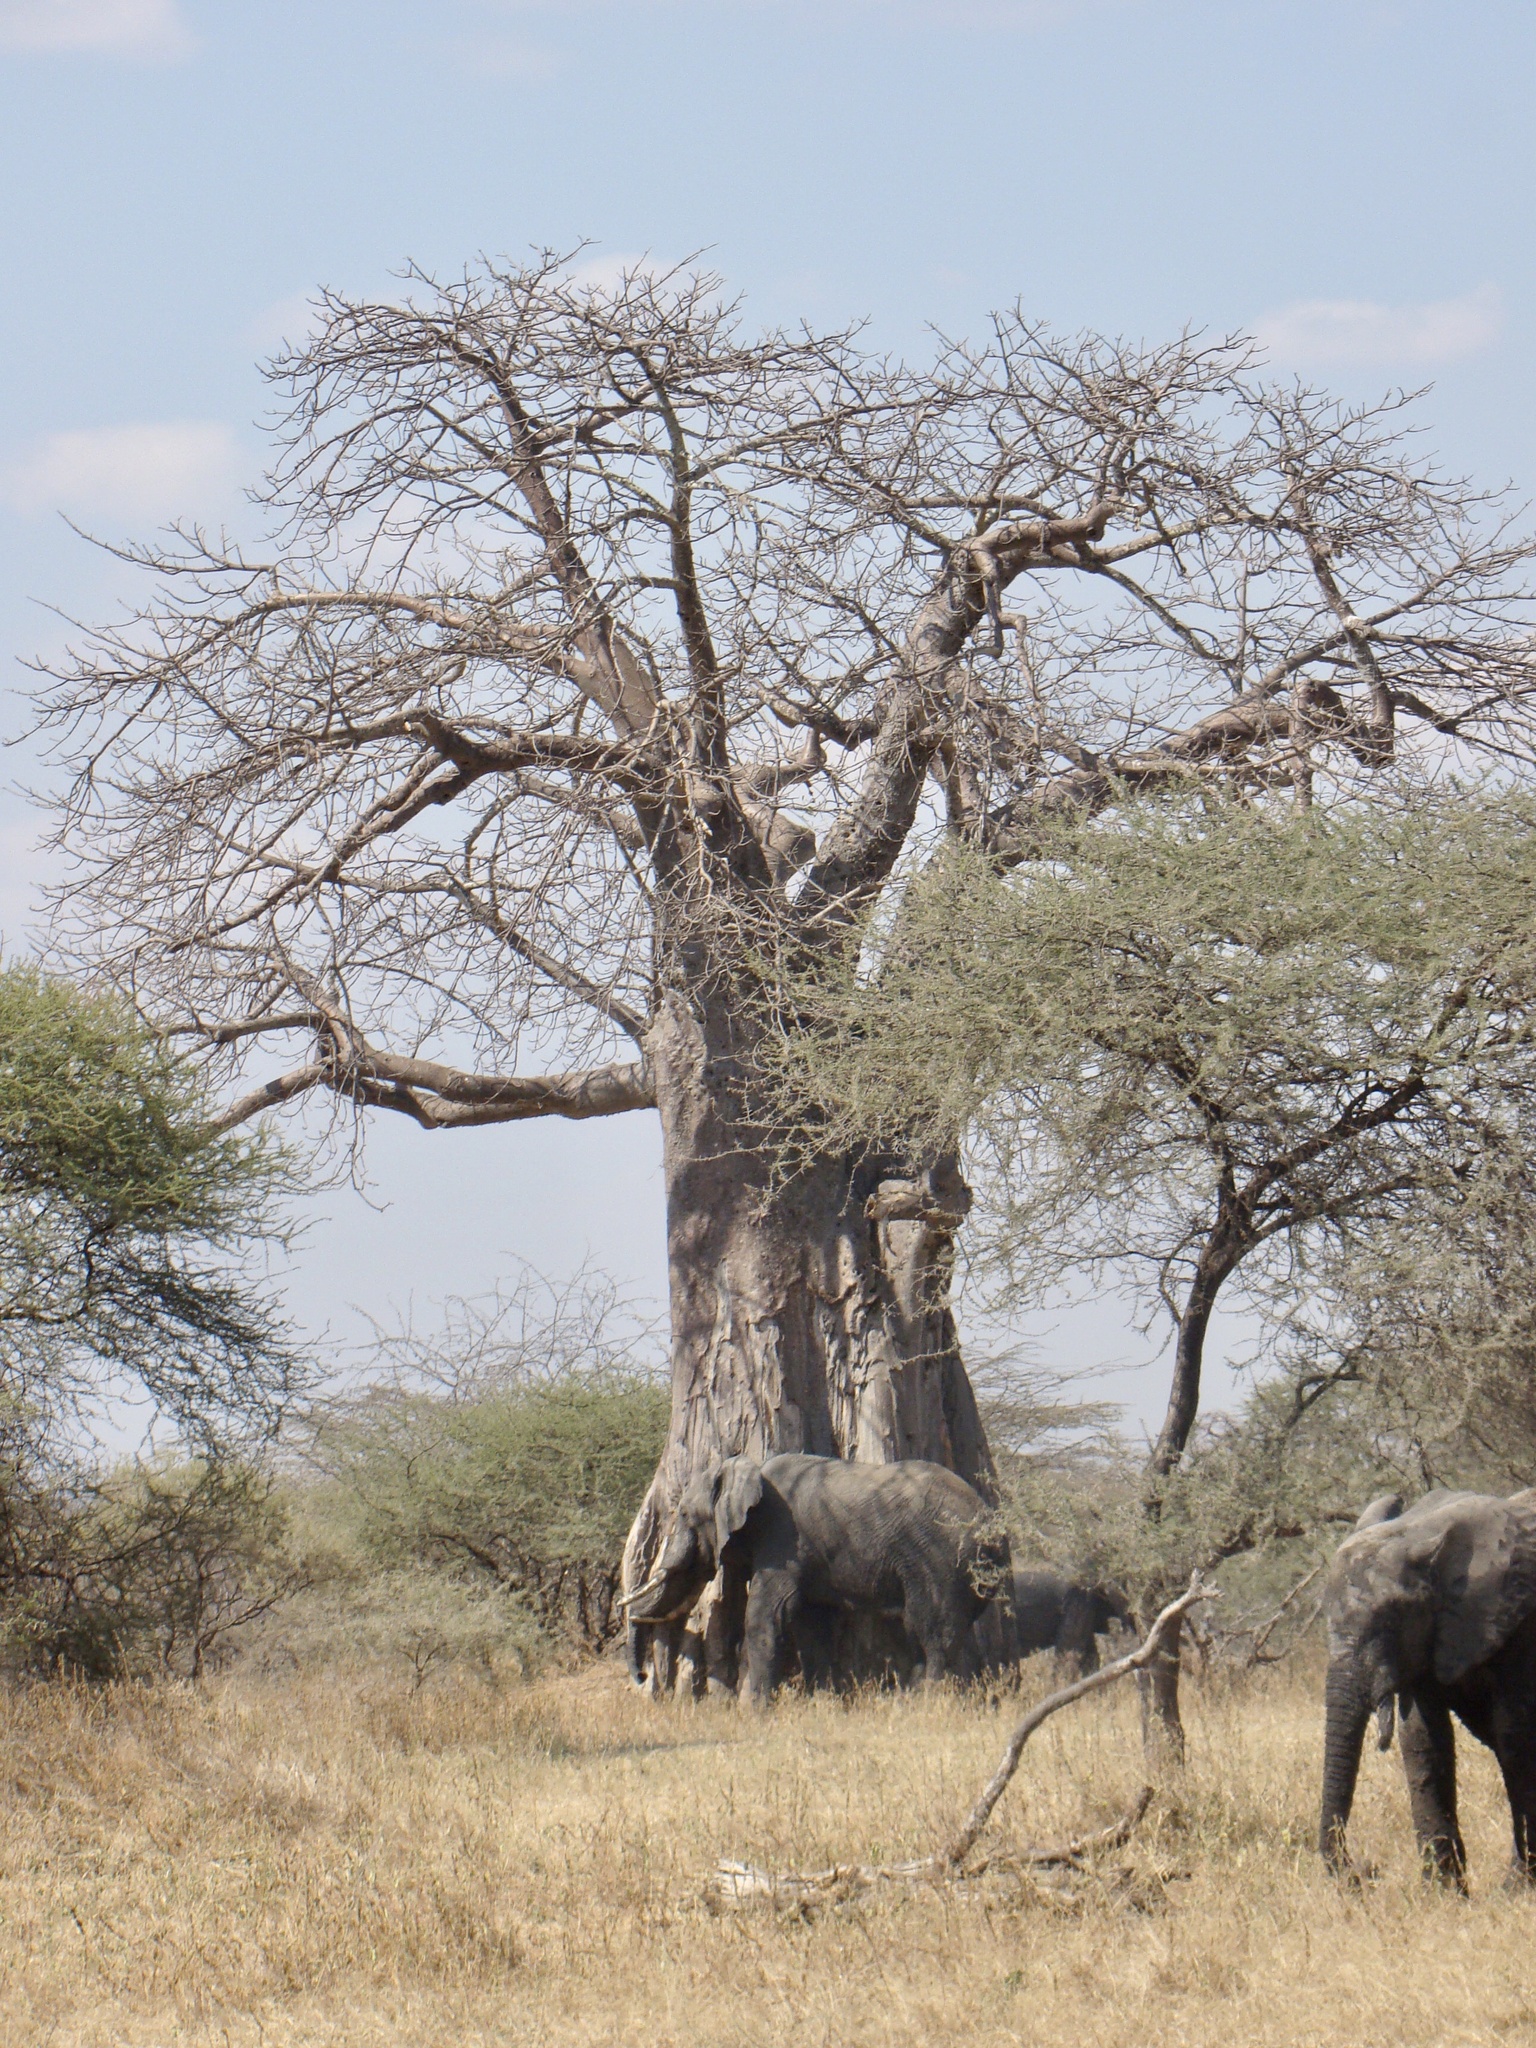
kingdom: Animalia
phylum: Chordata
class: Mammalia
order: Proboscidea
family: Elephantidae
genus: Loxodonta
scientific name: Loxodonta africana
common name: African elephant
